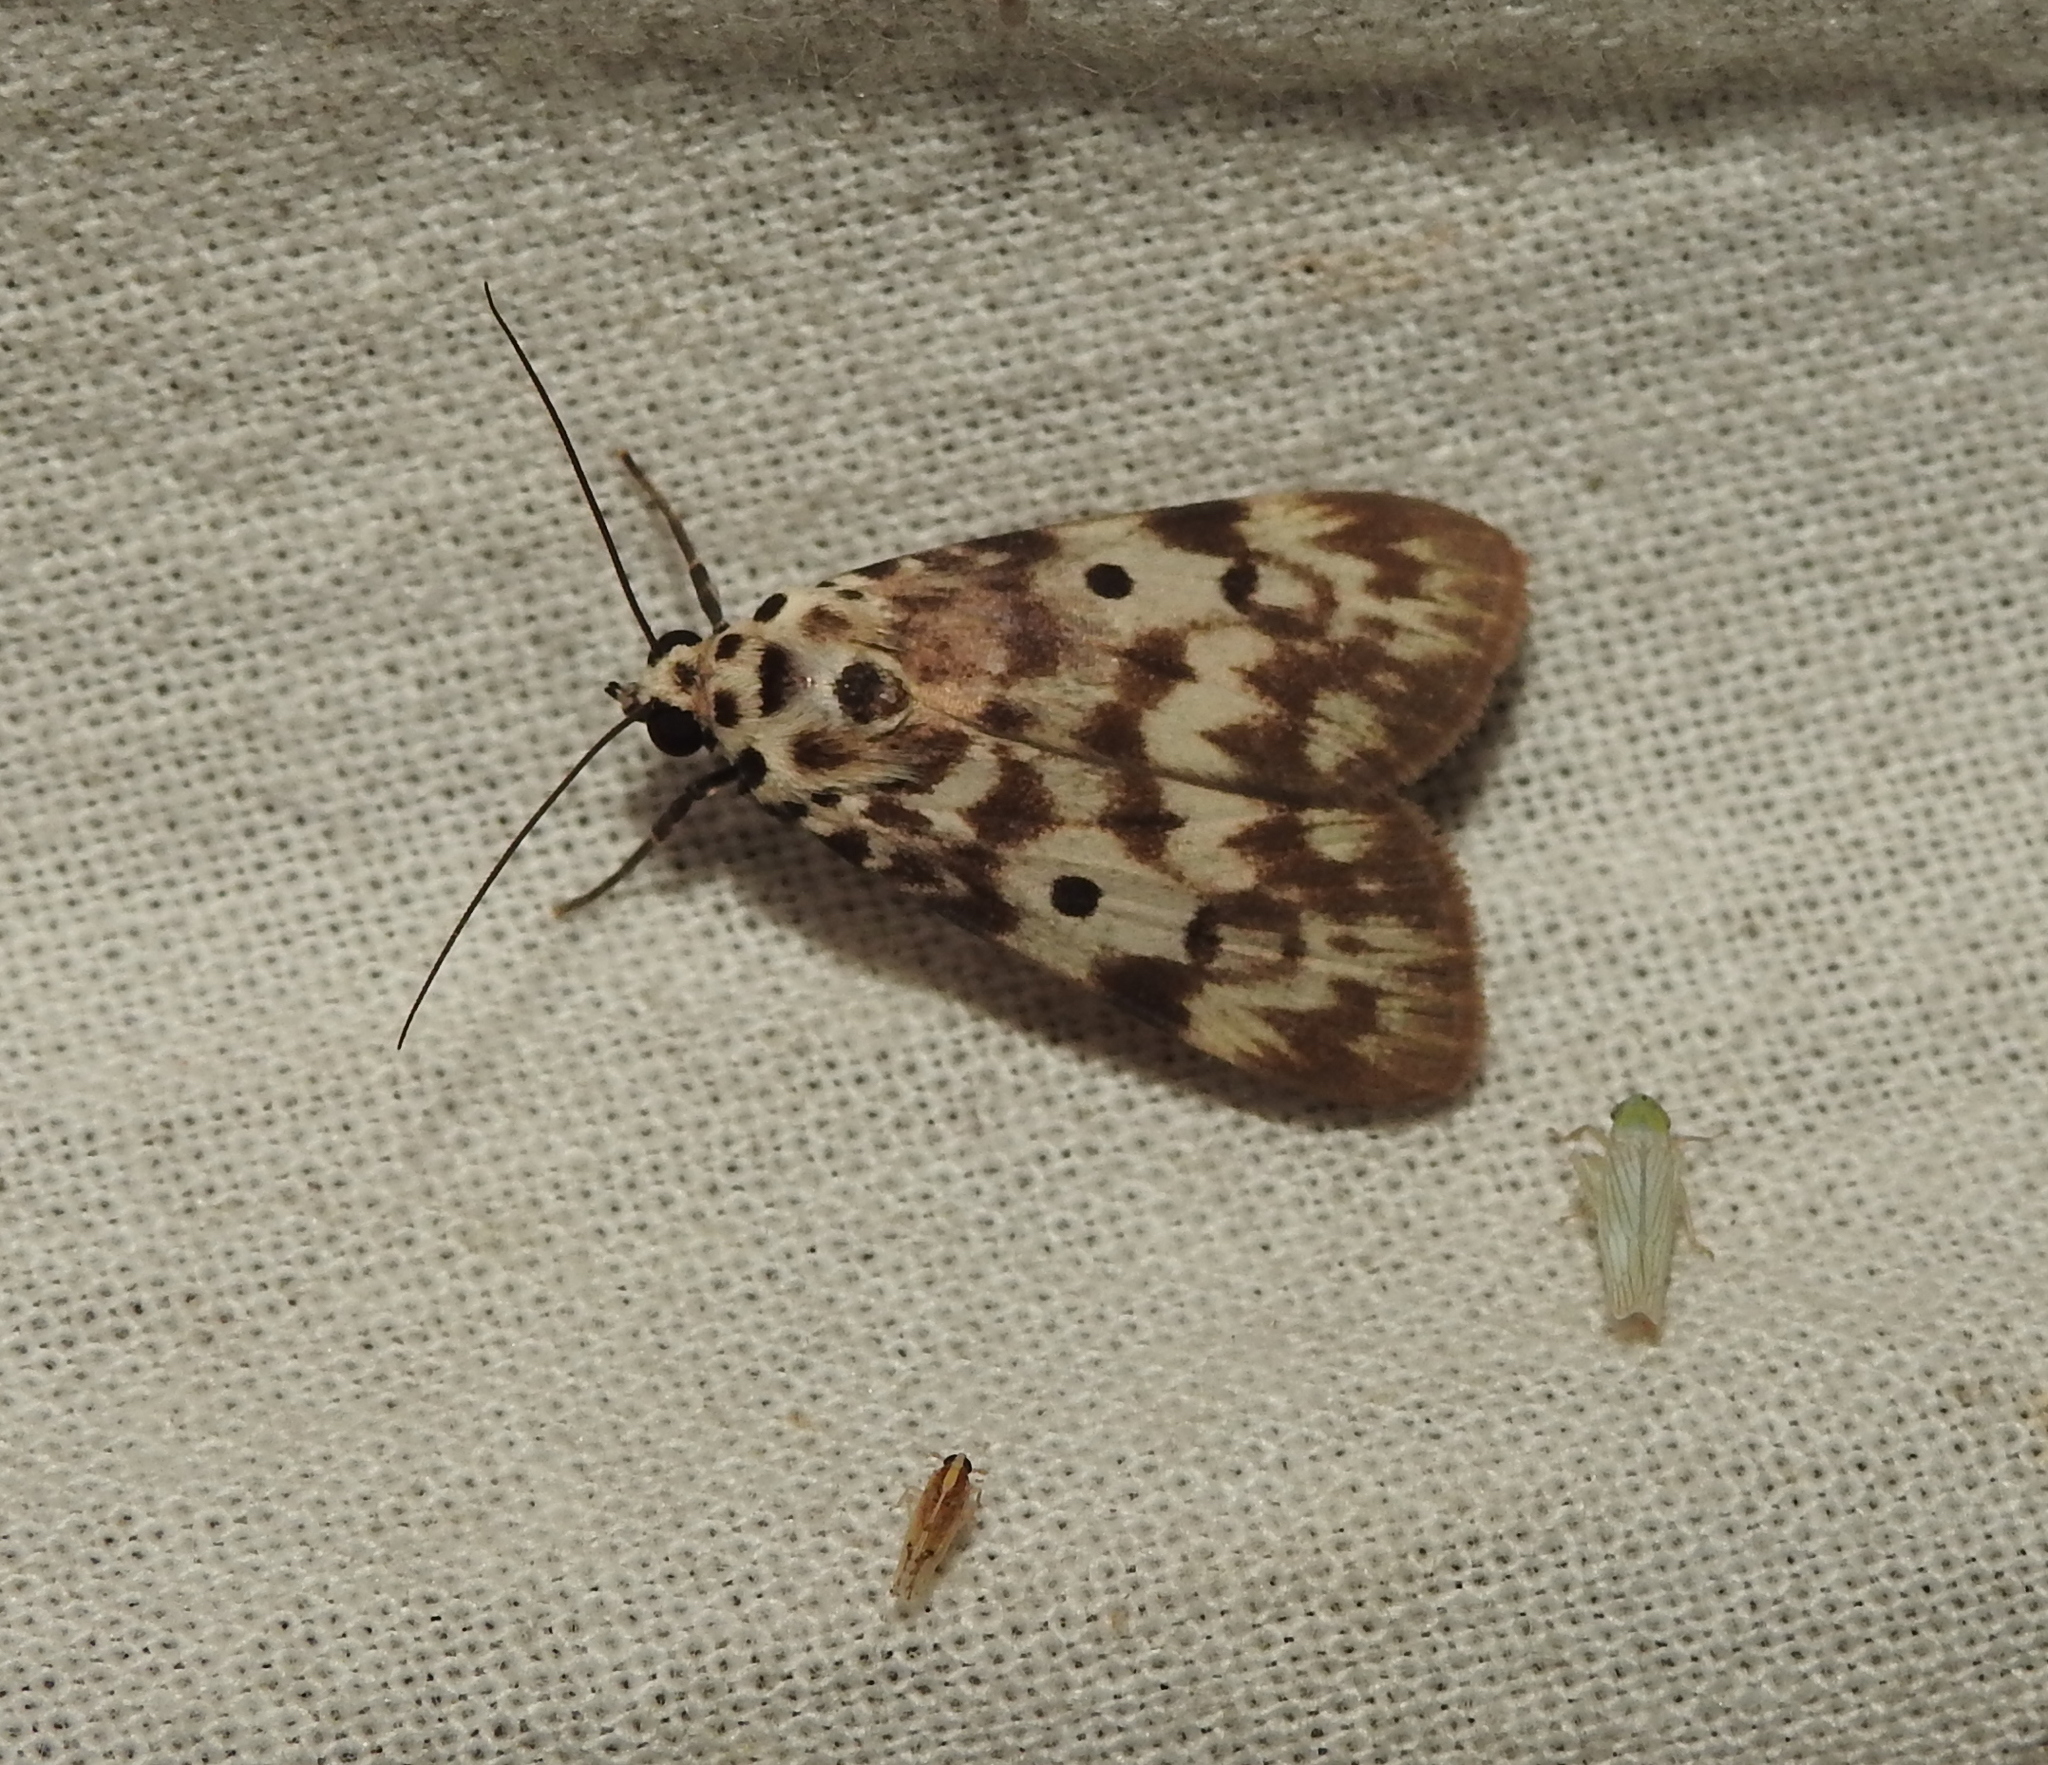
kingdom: Animalia
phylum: Arthropoda
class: Insecta
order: Lepidoptera
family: Erebidae
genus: Digama
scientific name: Digama
